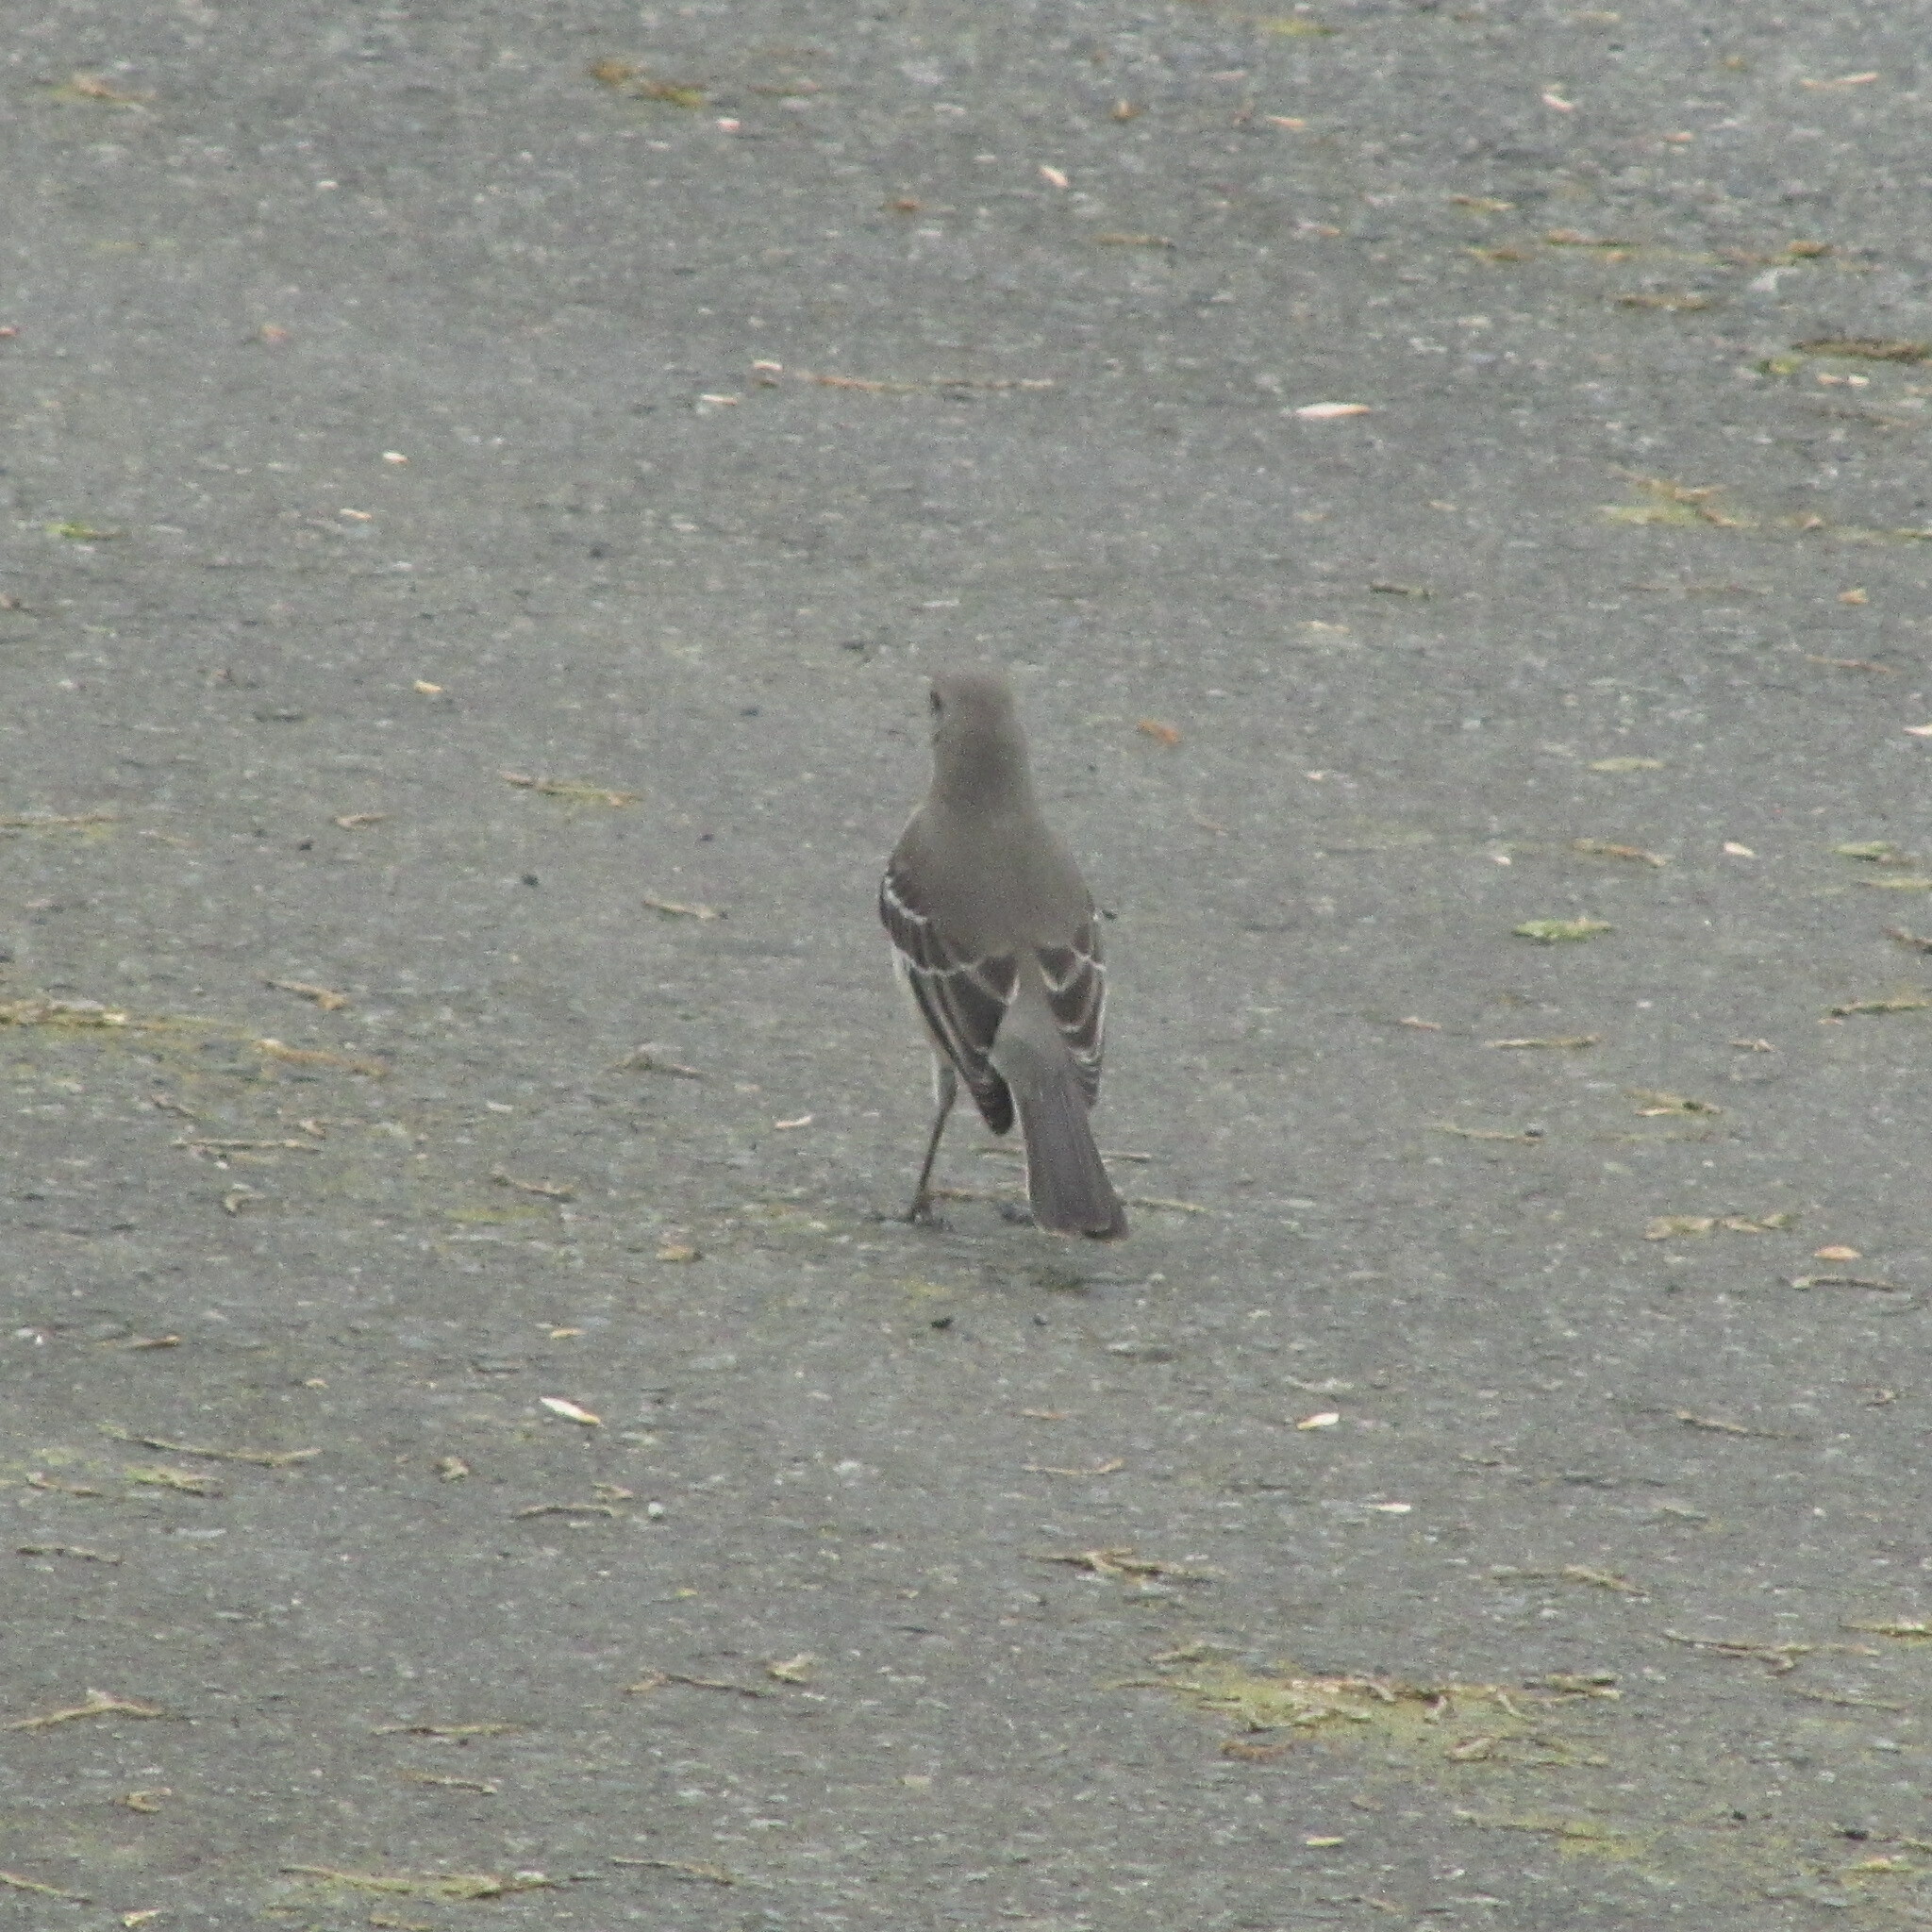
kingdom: Animalia
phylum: Chordata
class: Aves
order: Passeriformes
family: Mimidae
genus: Mimus
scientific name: Mimus polyglottos
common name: Northern mockingbird
